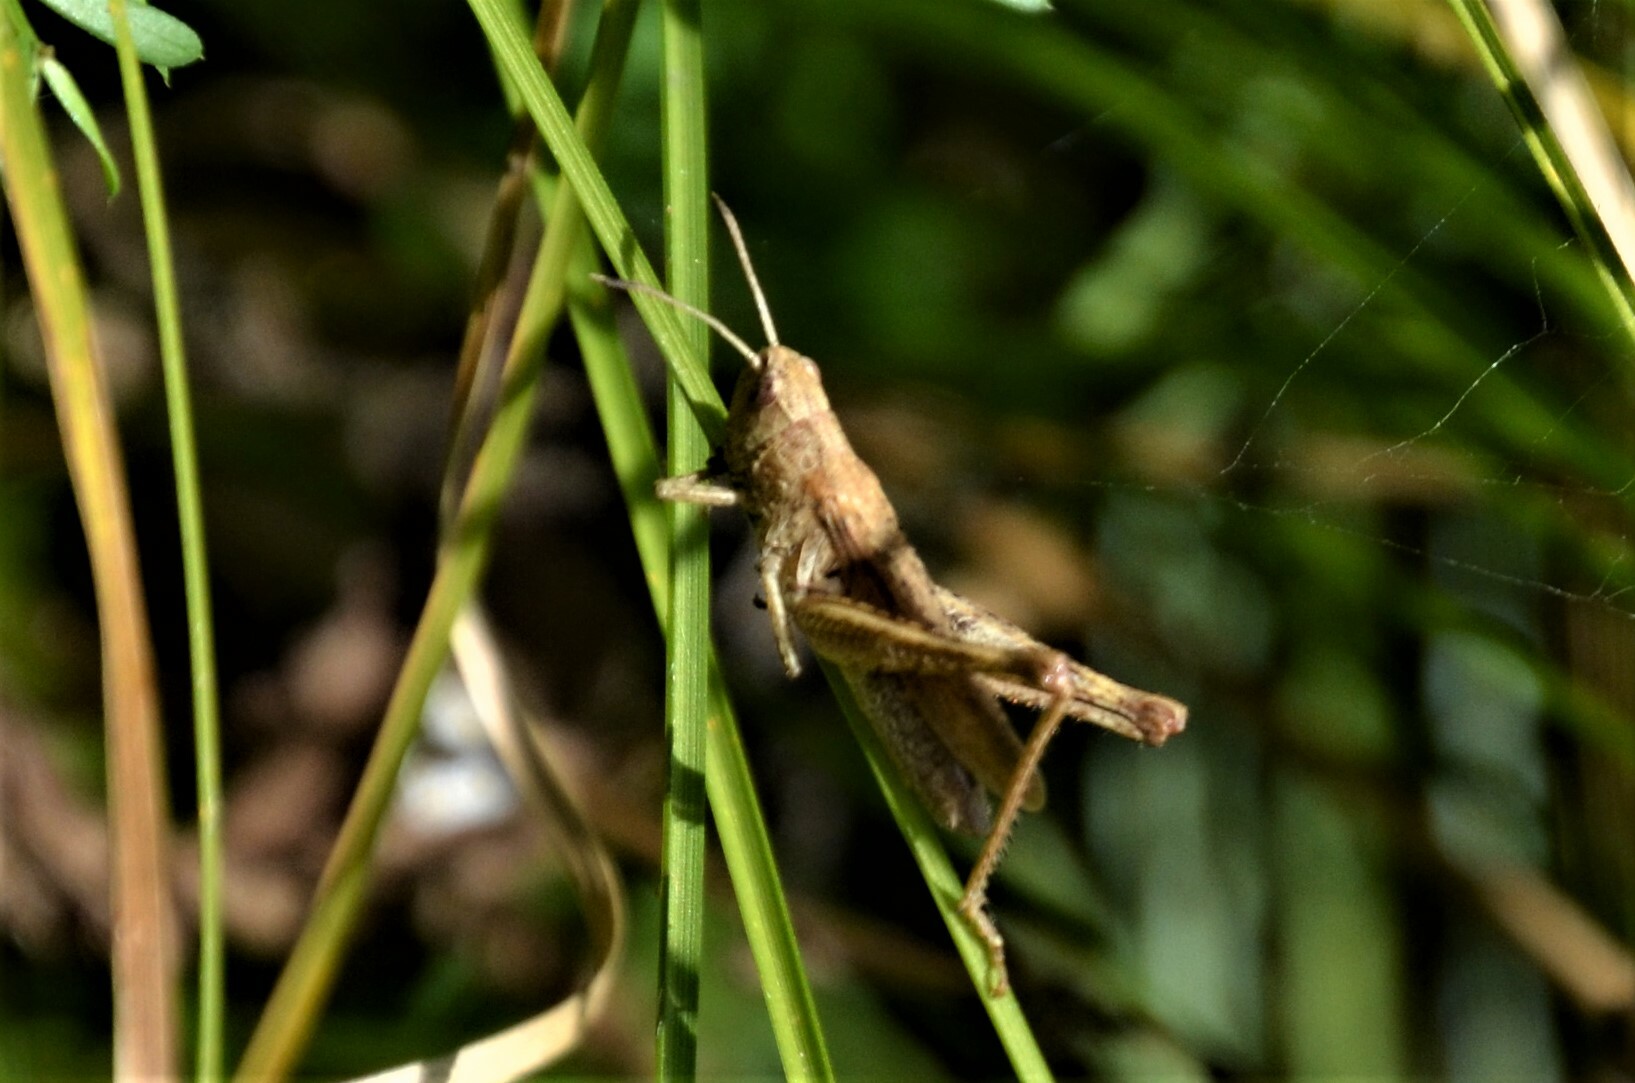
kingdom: Animalia
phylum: Arthropoda
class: Insecta
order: Orthoptera
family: Acrididae
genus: Gomphocerippus
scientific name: Gomphocerippus rufus
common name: Rufous grasshopper
